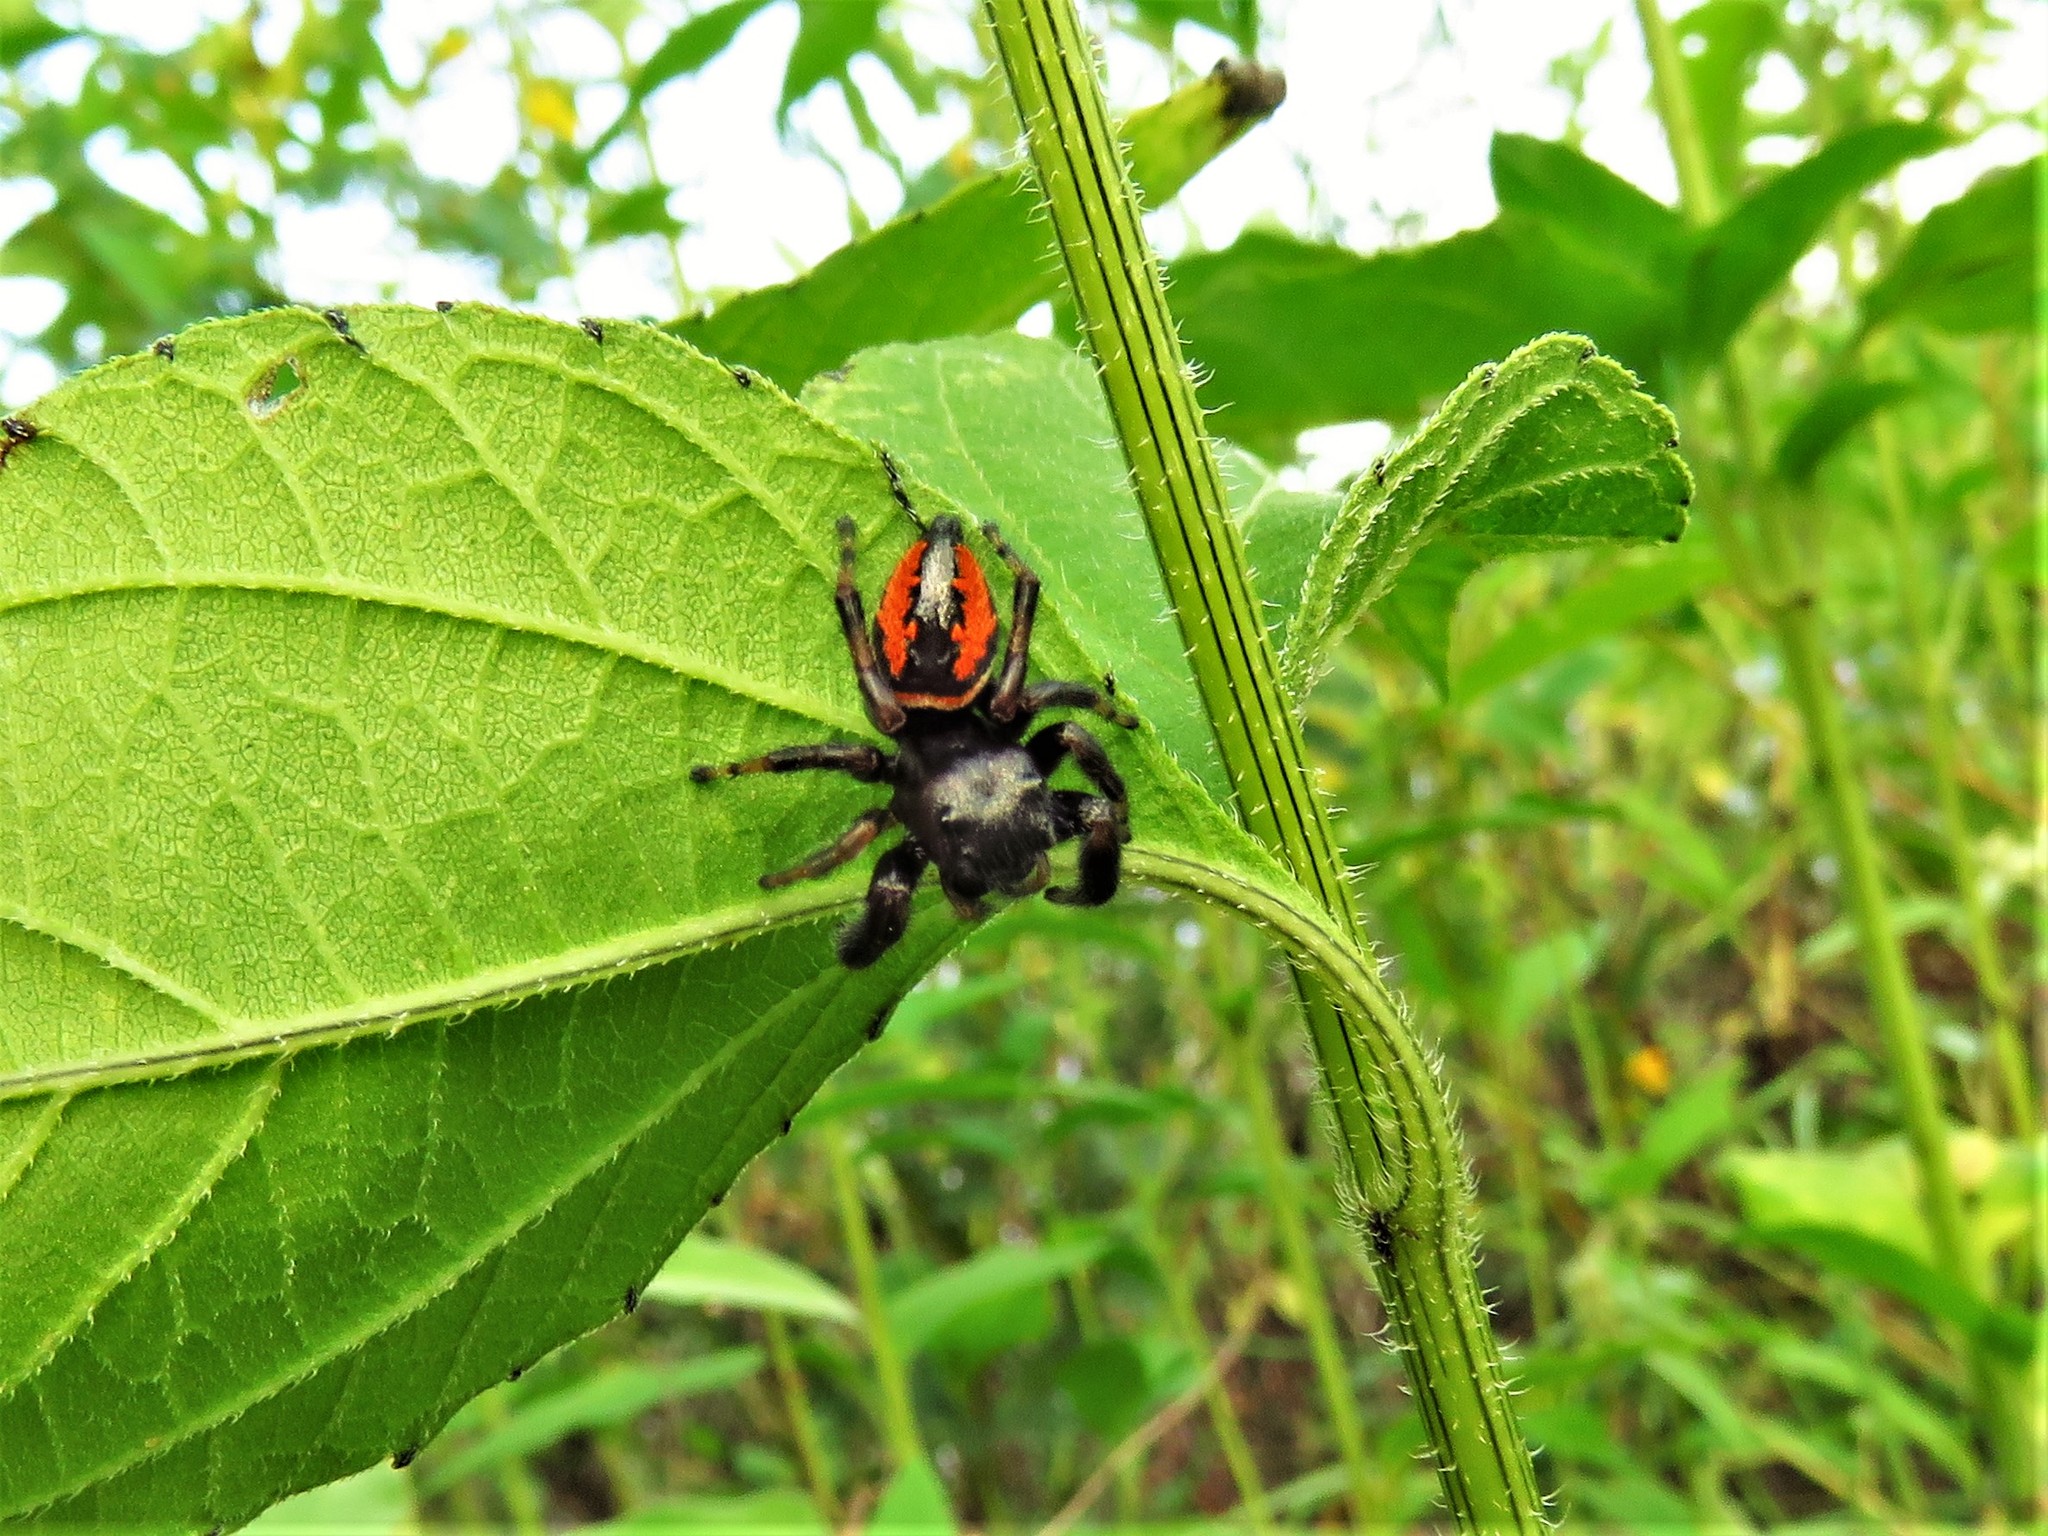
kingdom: Animalia
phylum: Arthropoda
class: Arachnida
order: Araneae
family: Salticidae
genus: Phidippus
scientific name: Phidippus clarus
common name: Brilliant jumping spider
